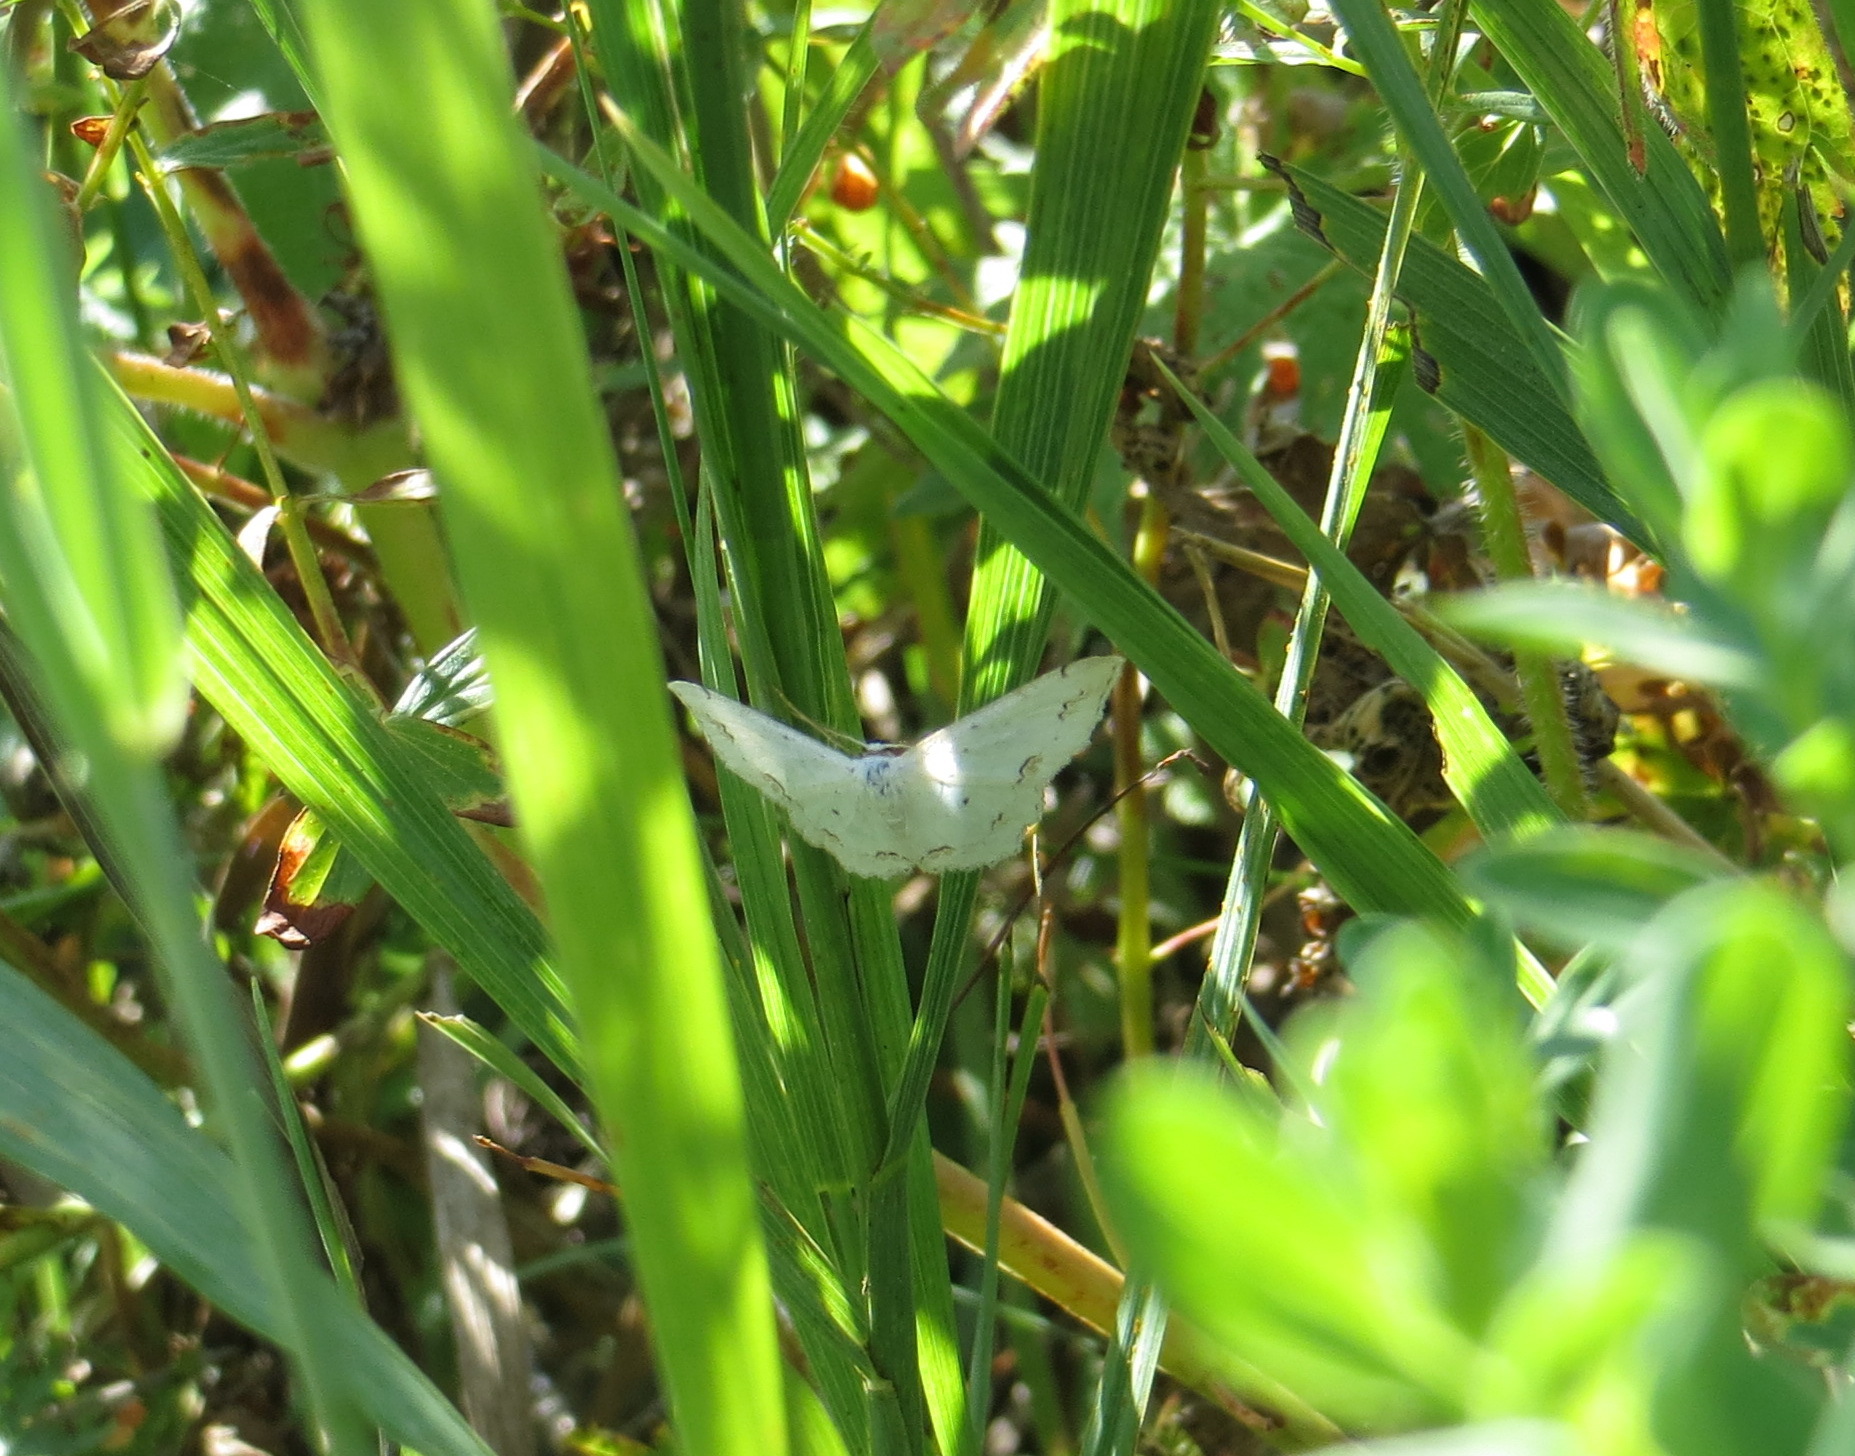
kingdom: Animalia
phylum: Arthropoda
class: Insecta
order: Lepidoptera
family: Geometridae
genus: Scopula
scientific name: Scopula ornata
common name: Lace border
